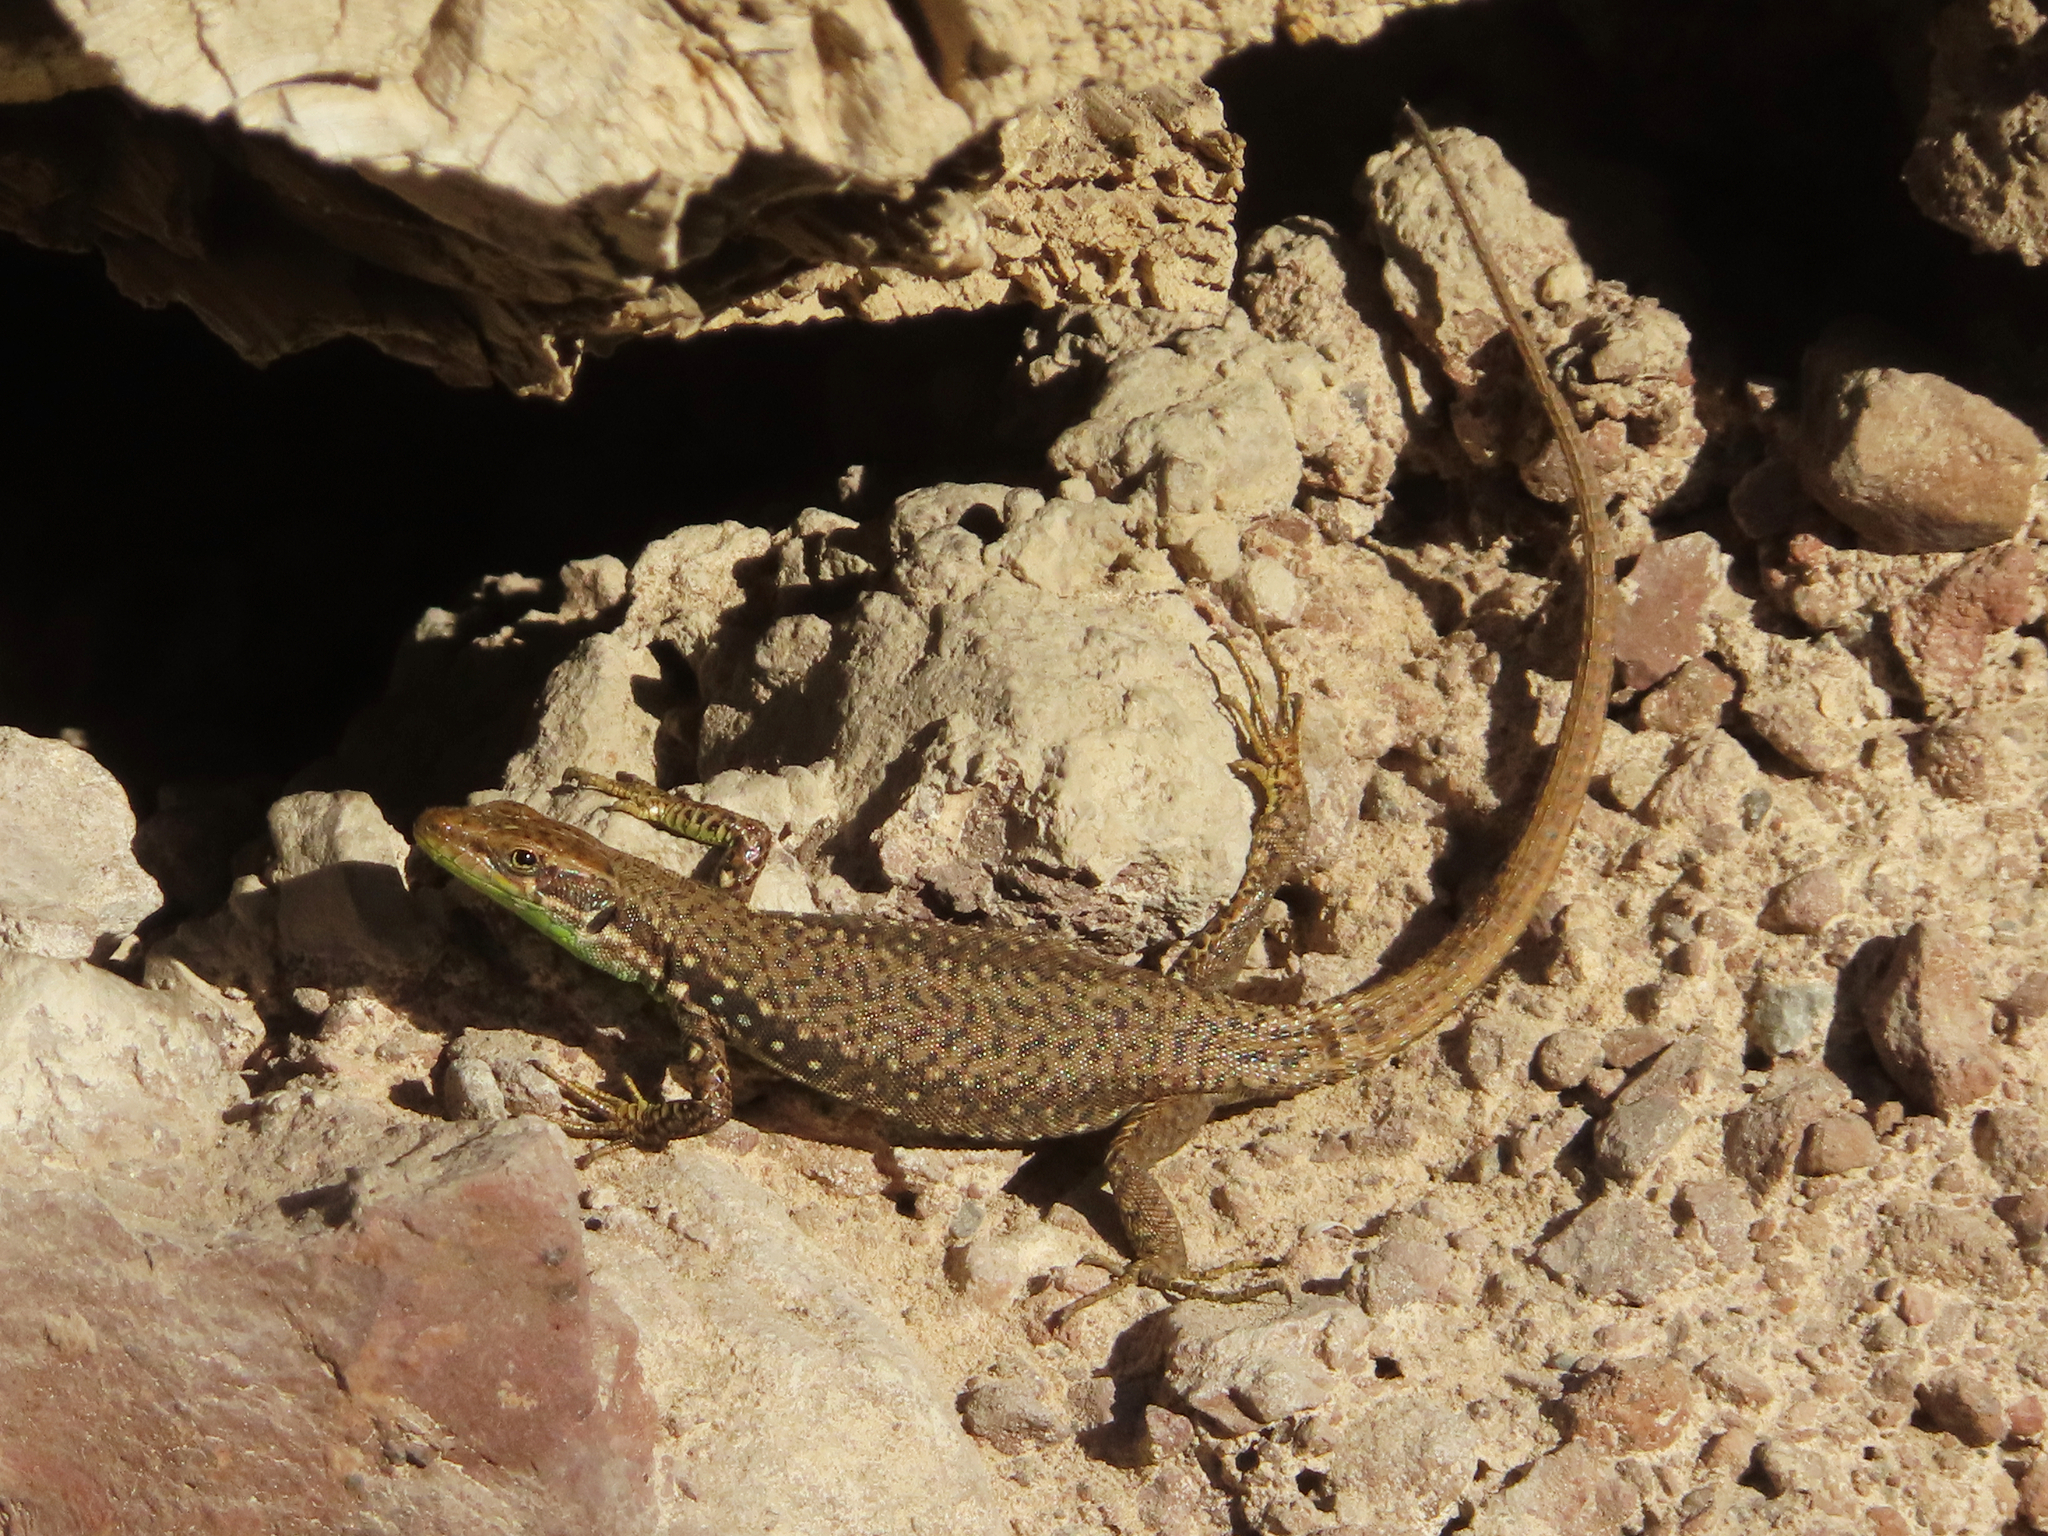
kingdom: Animalia
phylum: Chordata
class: Squamata
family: Lacertidae
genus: Darevskia
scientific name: Darevskia raddei
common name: Radde's lizard
